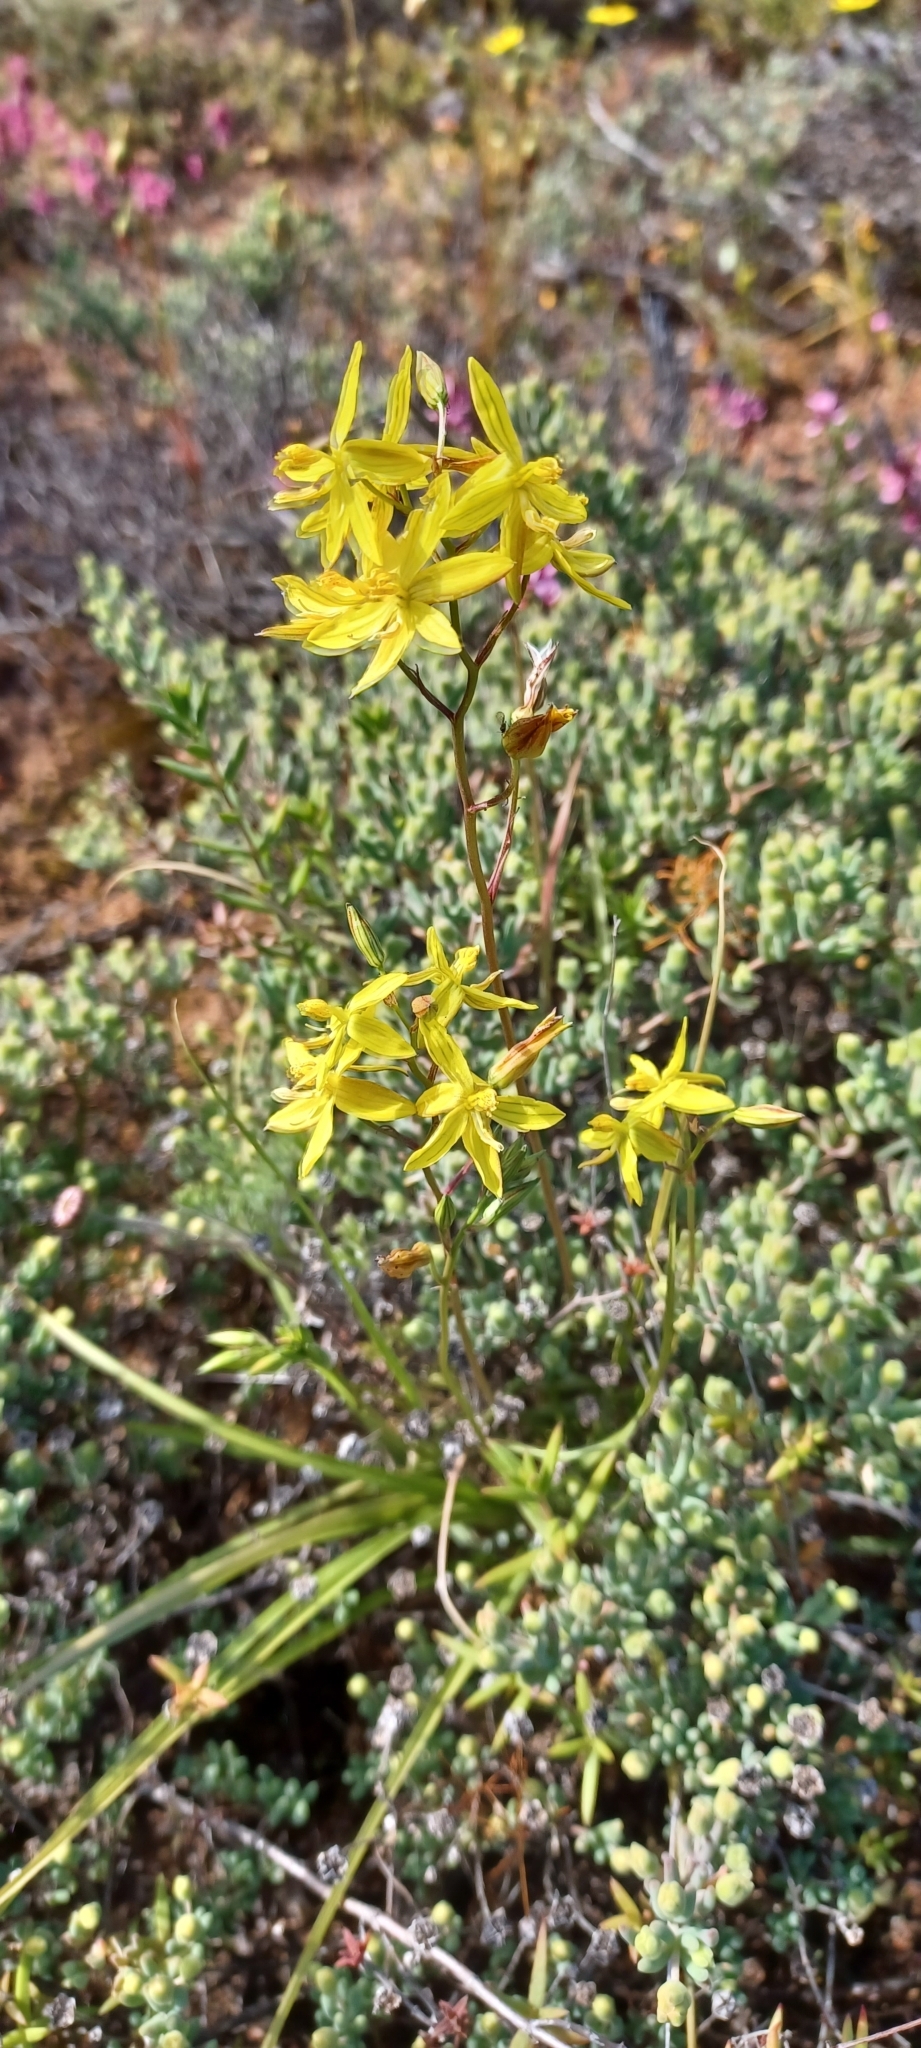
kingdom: Plantae
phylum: Tracheophyta
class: Liliopsida
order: Asparagales
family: Tecophilaeaceae
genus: Cyanella
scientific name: Cyanella lutea
